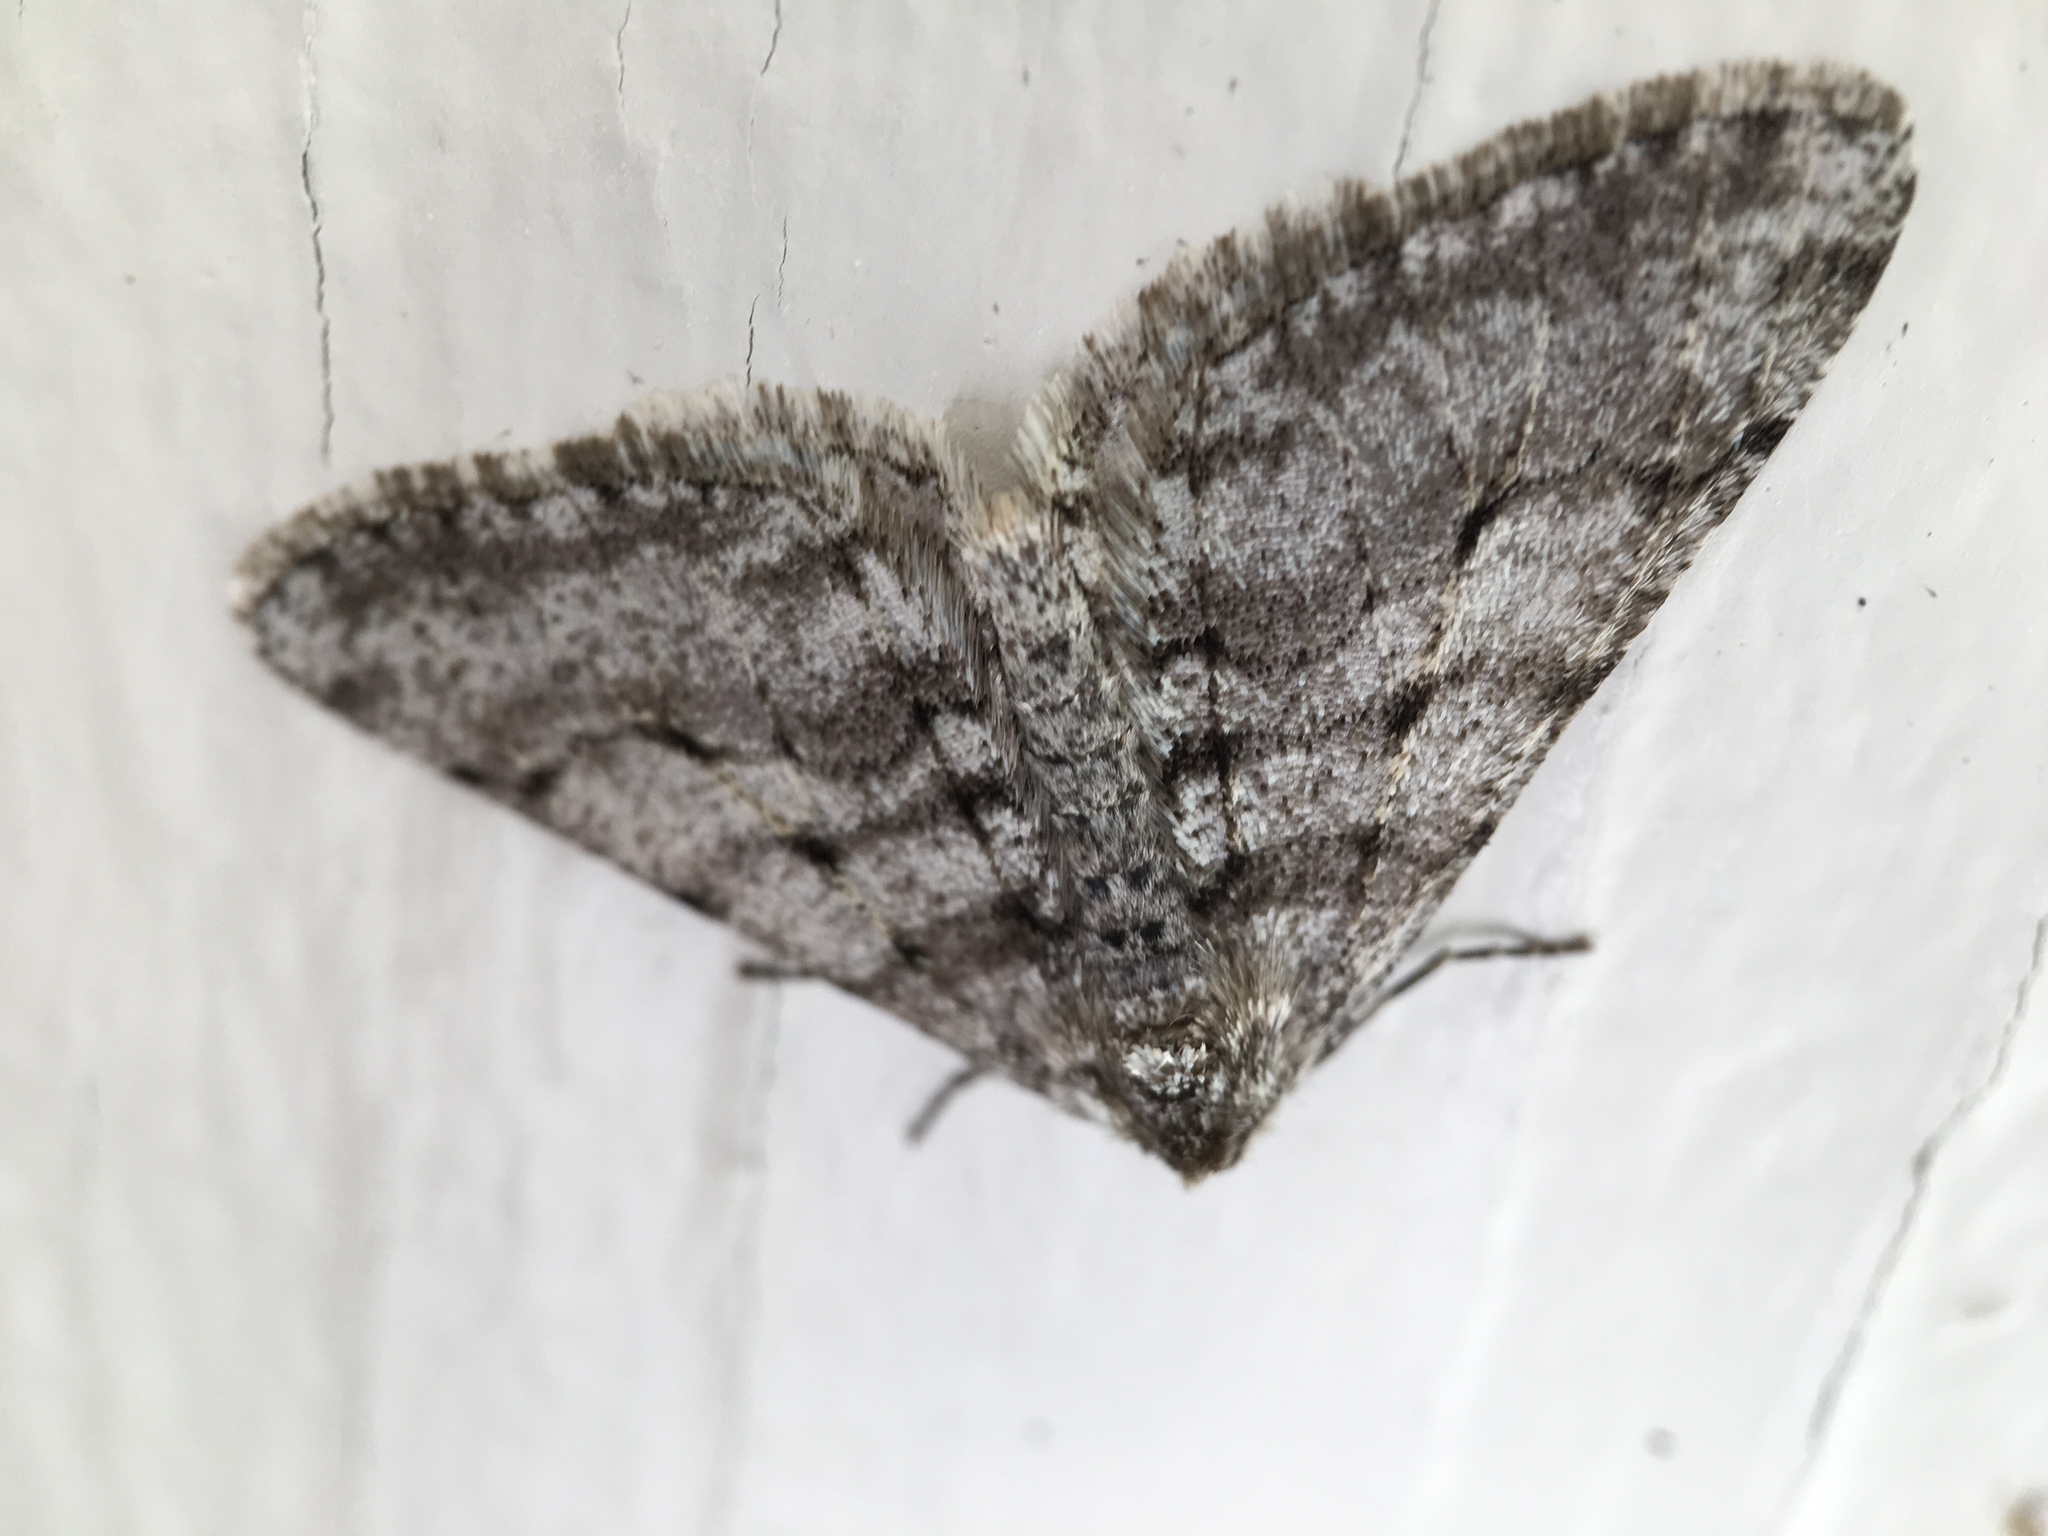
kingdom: Animalia
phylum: Arthropoda
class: Insecta
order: Lepidoptera
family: Geometridae
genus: Phigalia
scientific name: Phigalia titea
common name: Spiny looper
